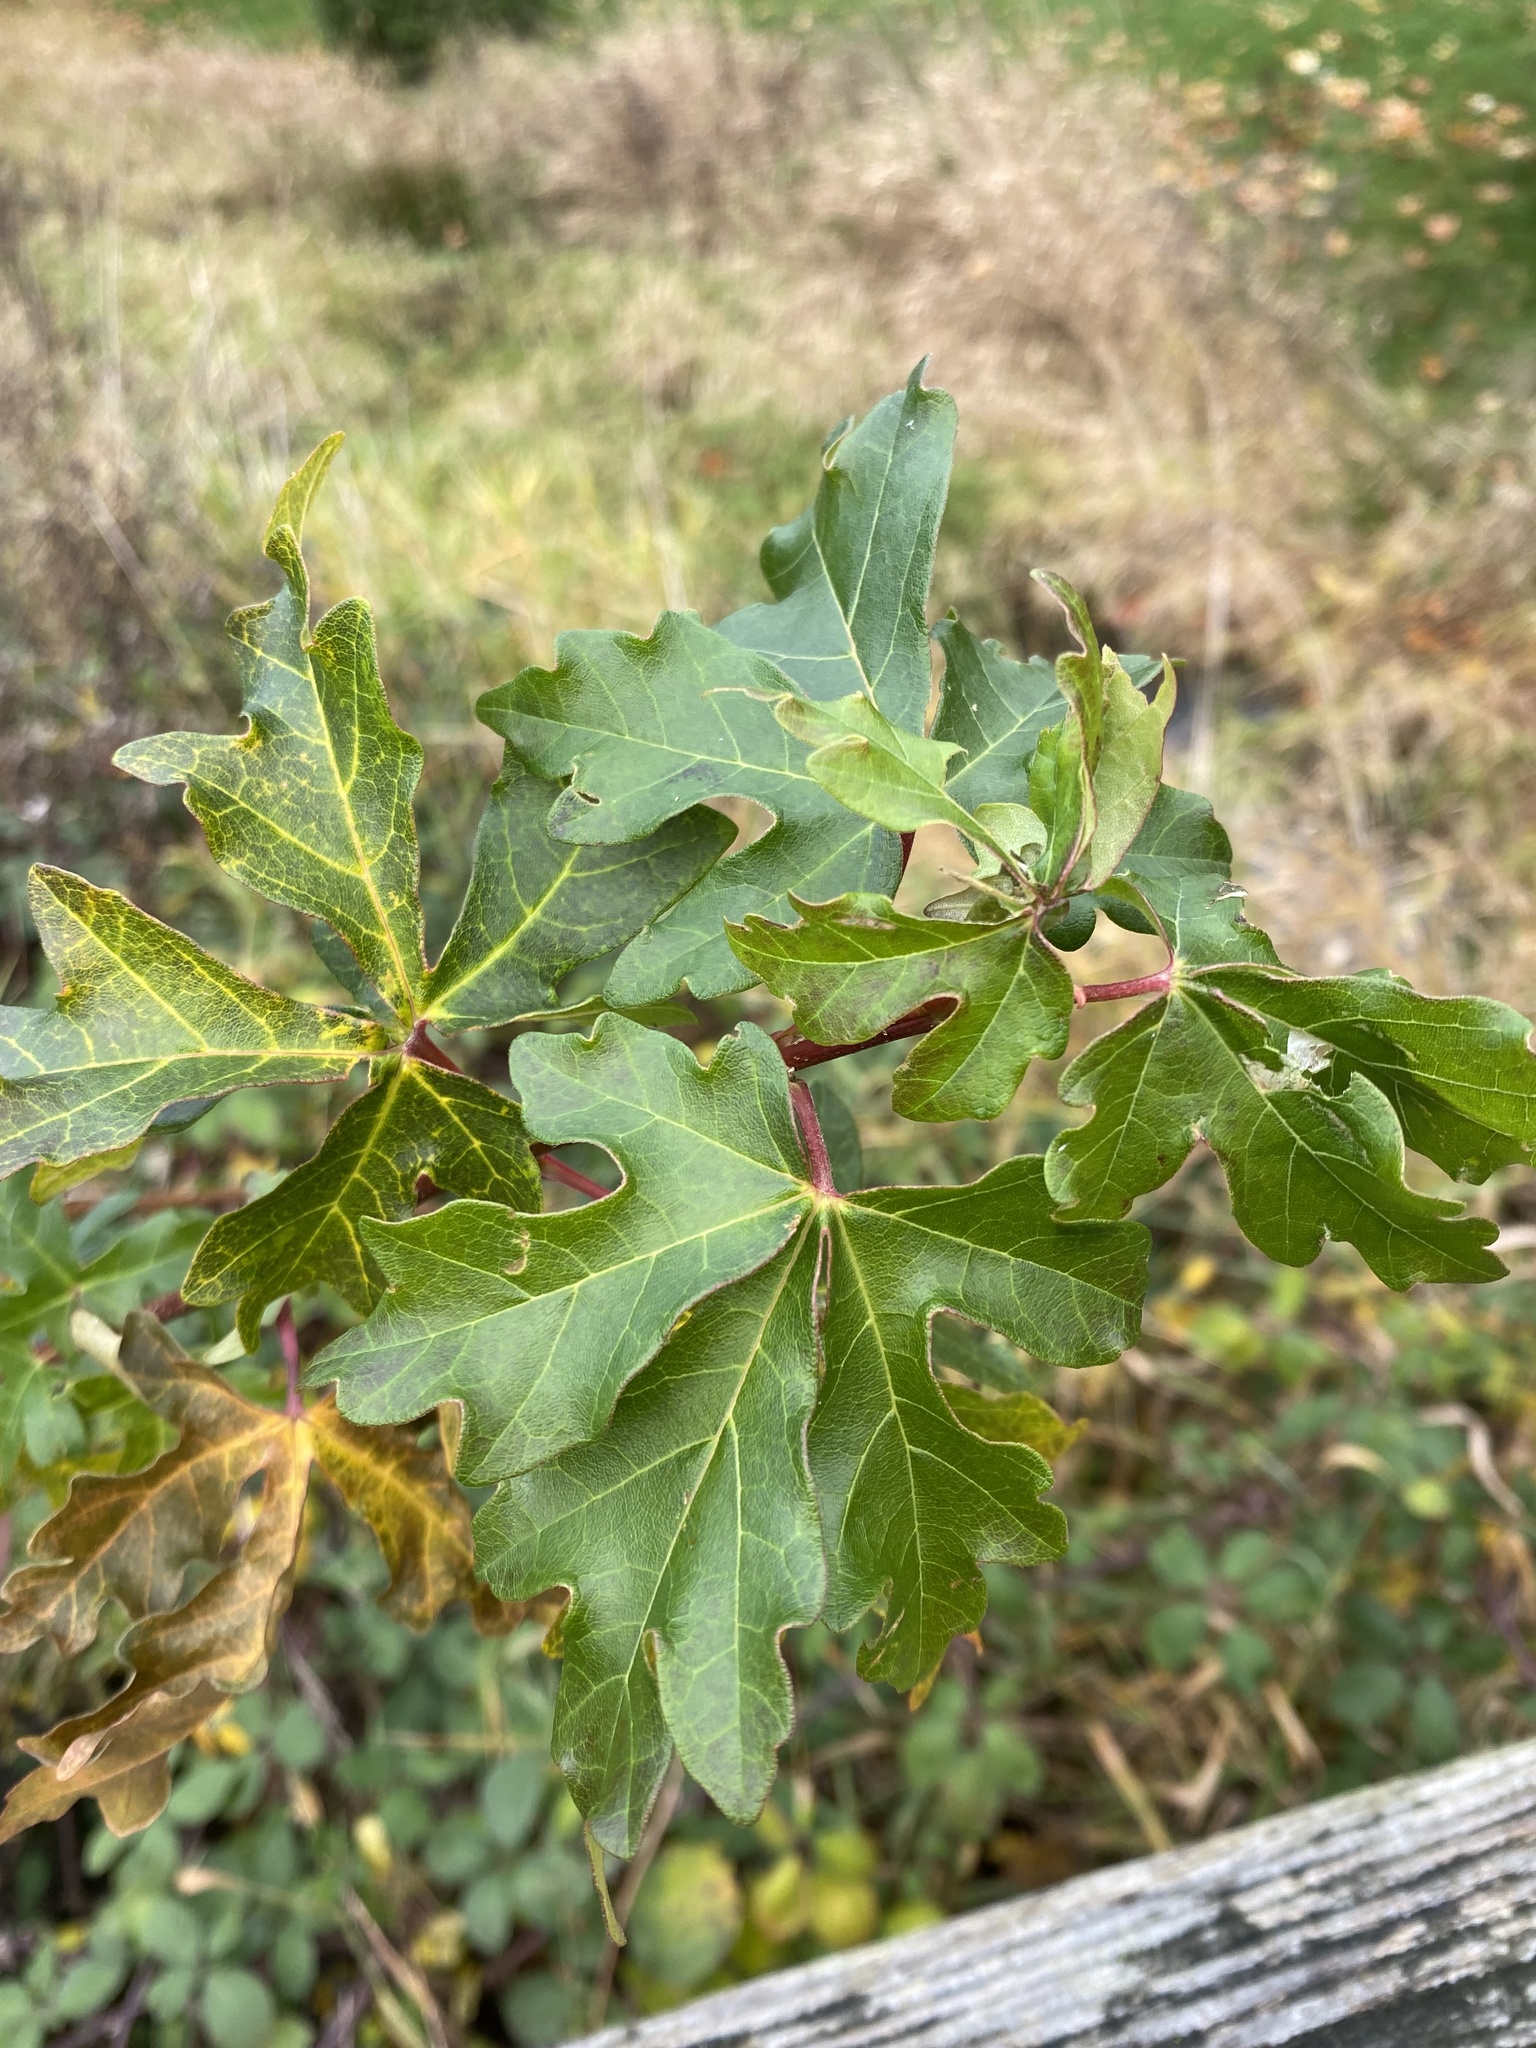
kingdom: Plantae
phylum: Tracheophyta
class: Magnoliopsida
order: Sapindales
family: Sapindaceae
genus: Acer
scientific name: Acer campestre
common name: Field maple
